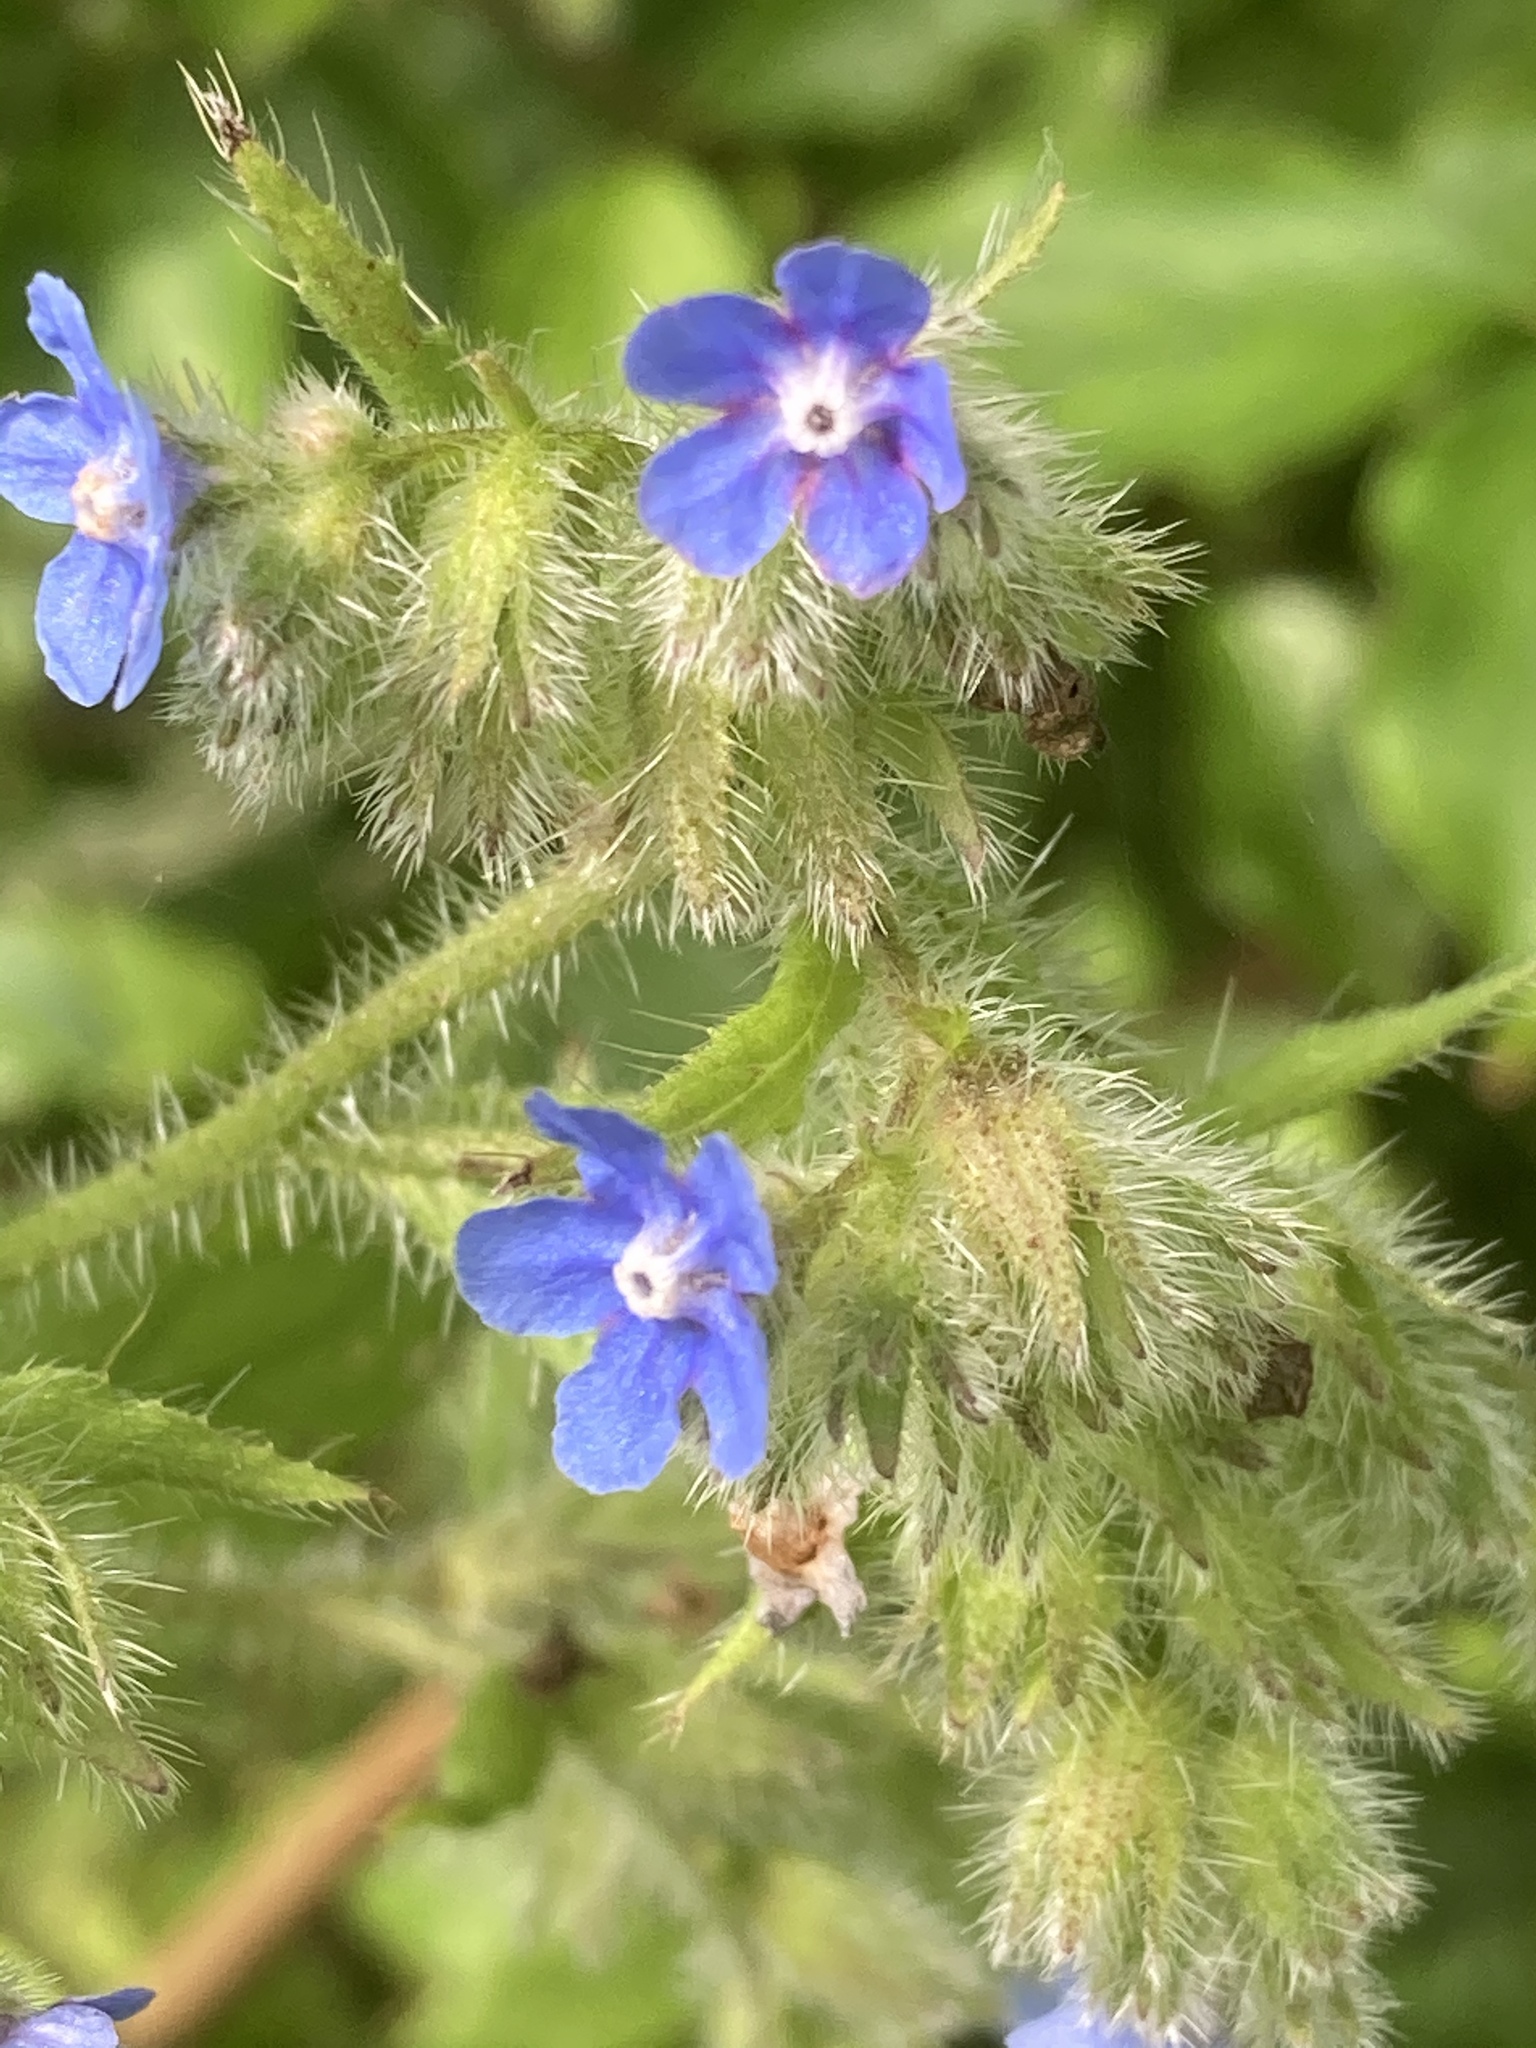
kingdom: Plantae
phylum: Tracheophyta
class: Magnoliopsida
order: Boraginales
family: Boraginaceae
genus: Pentaglottis
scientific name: Pentaglottis sempervirens
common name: Green alkanet
